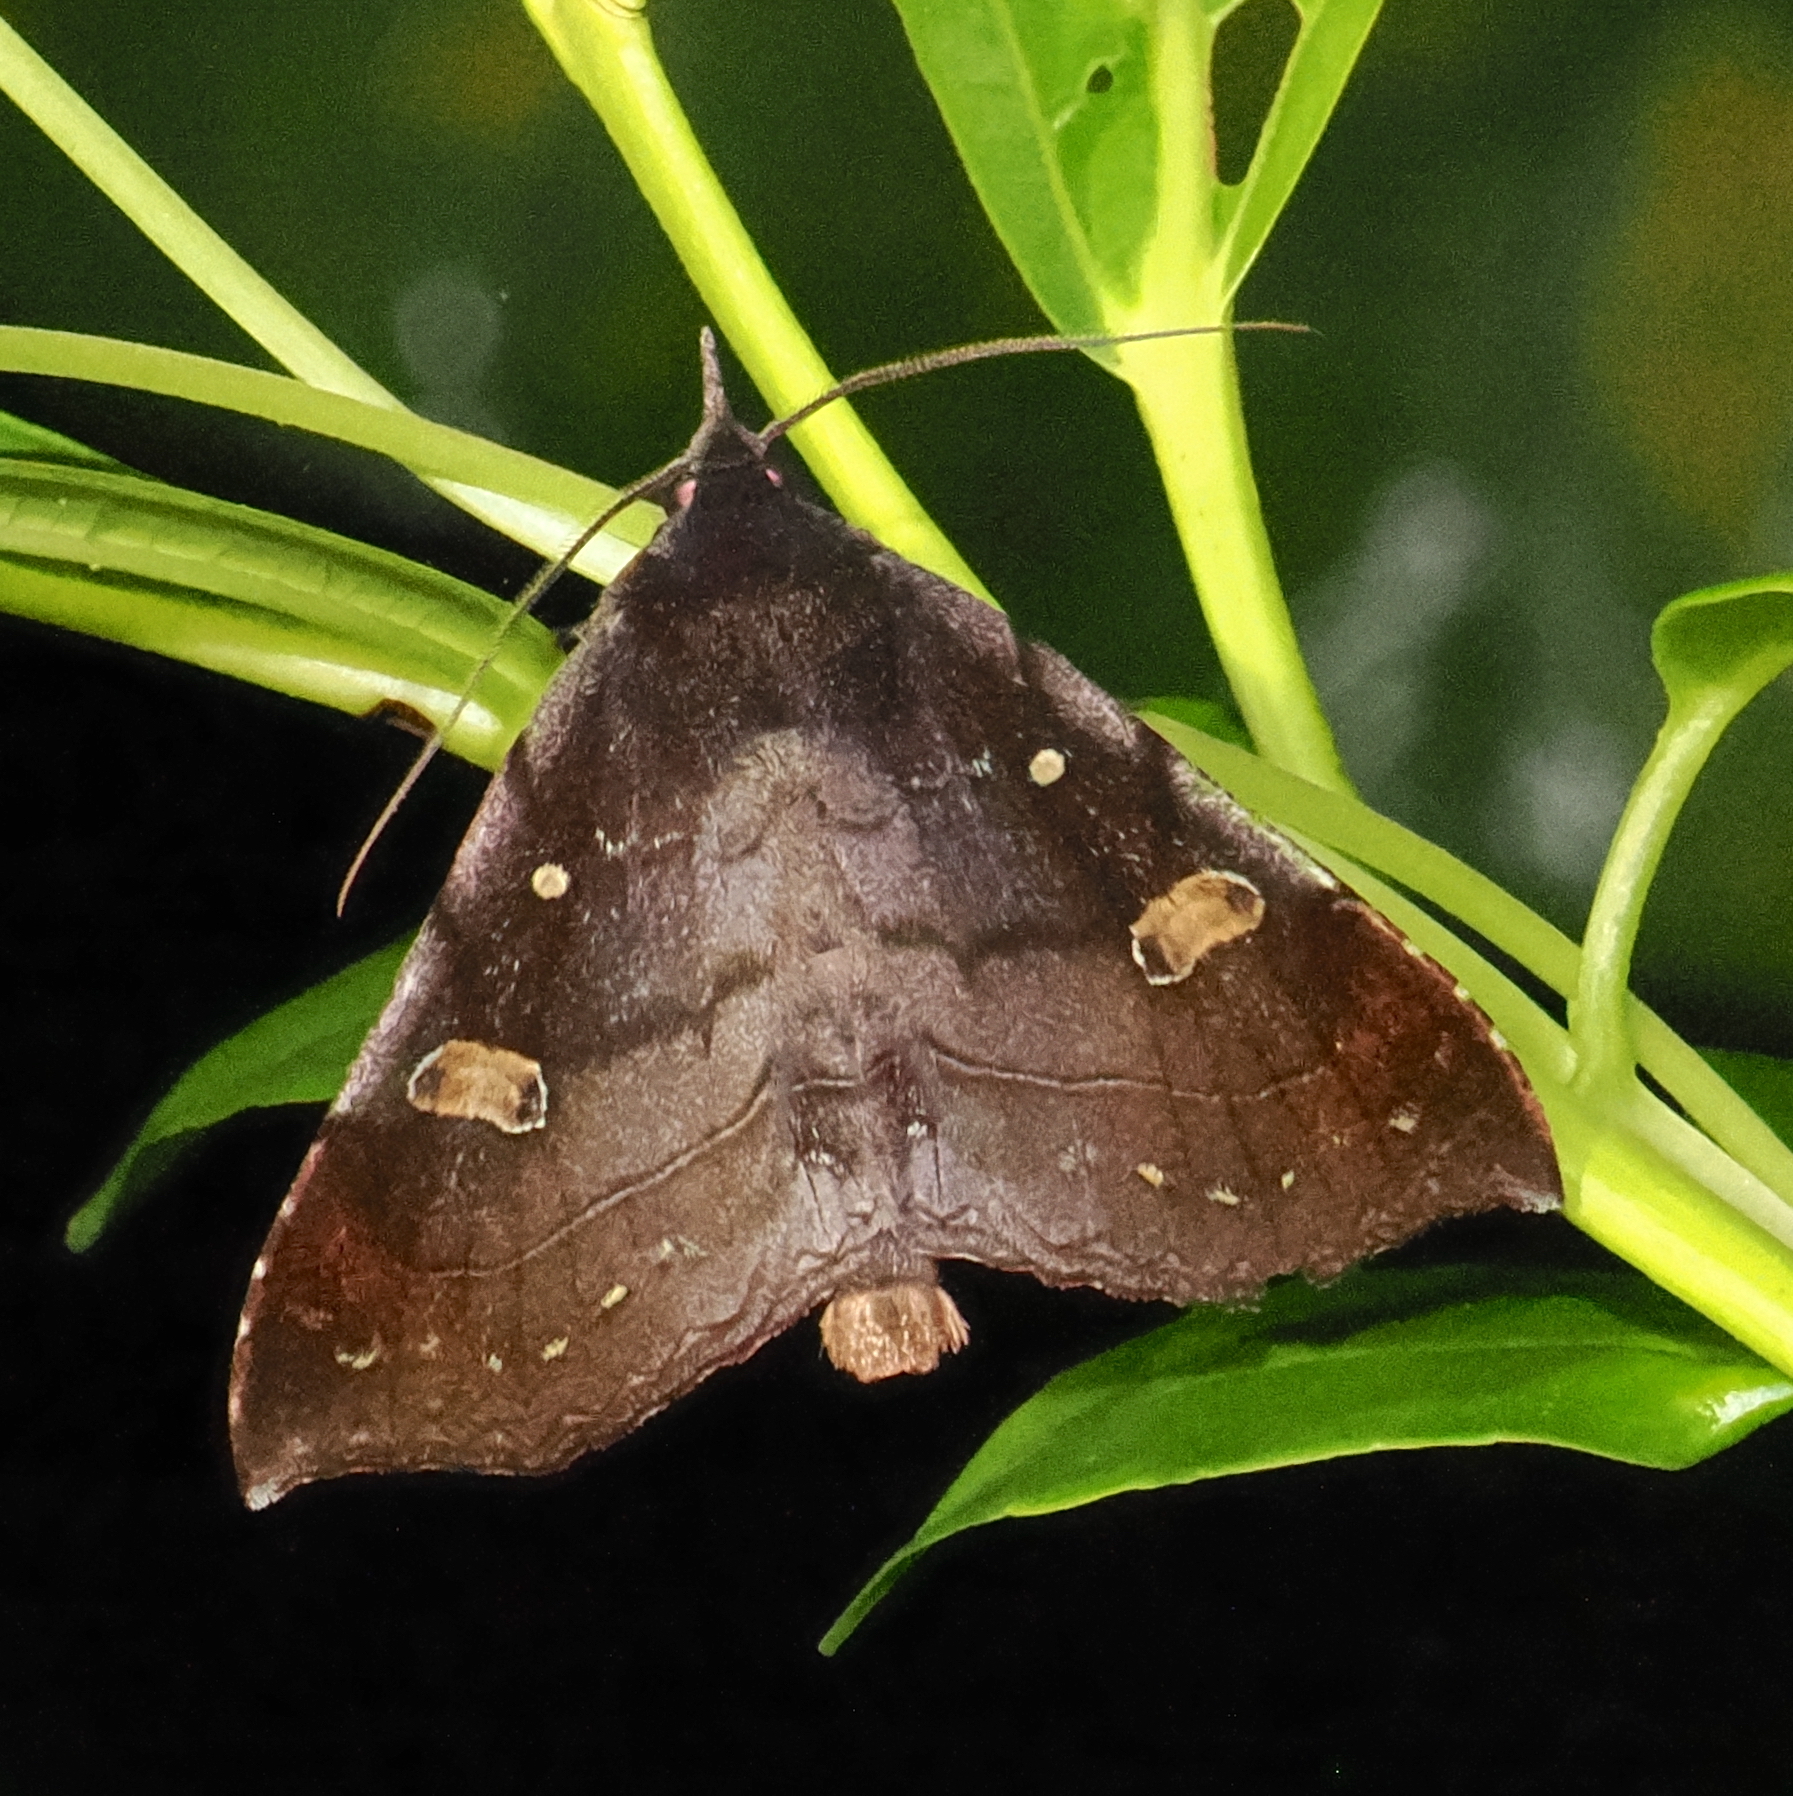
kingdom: Animalia
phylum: Arthropoda
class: Insecta
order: Lepidoptera
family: Erebidae
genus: Azeta
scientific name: Azeta rufescens
